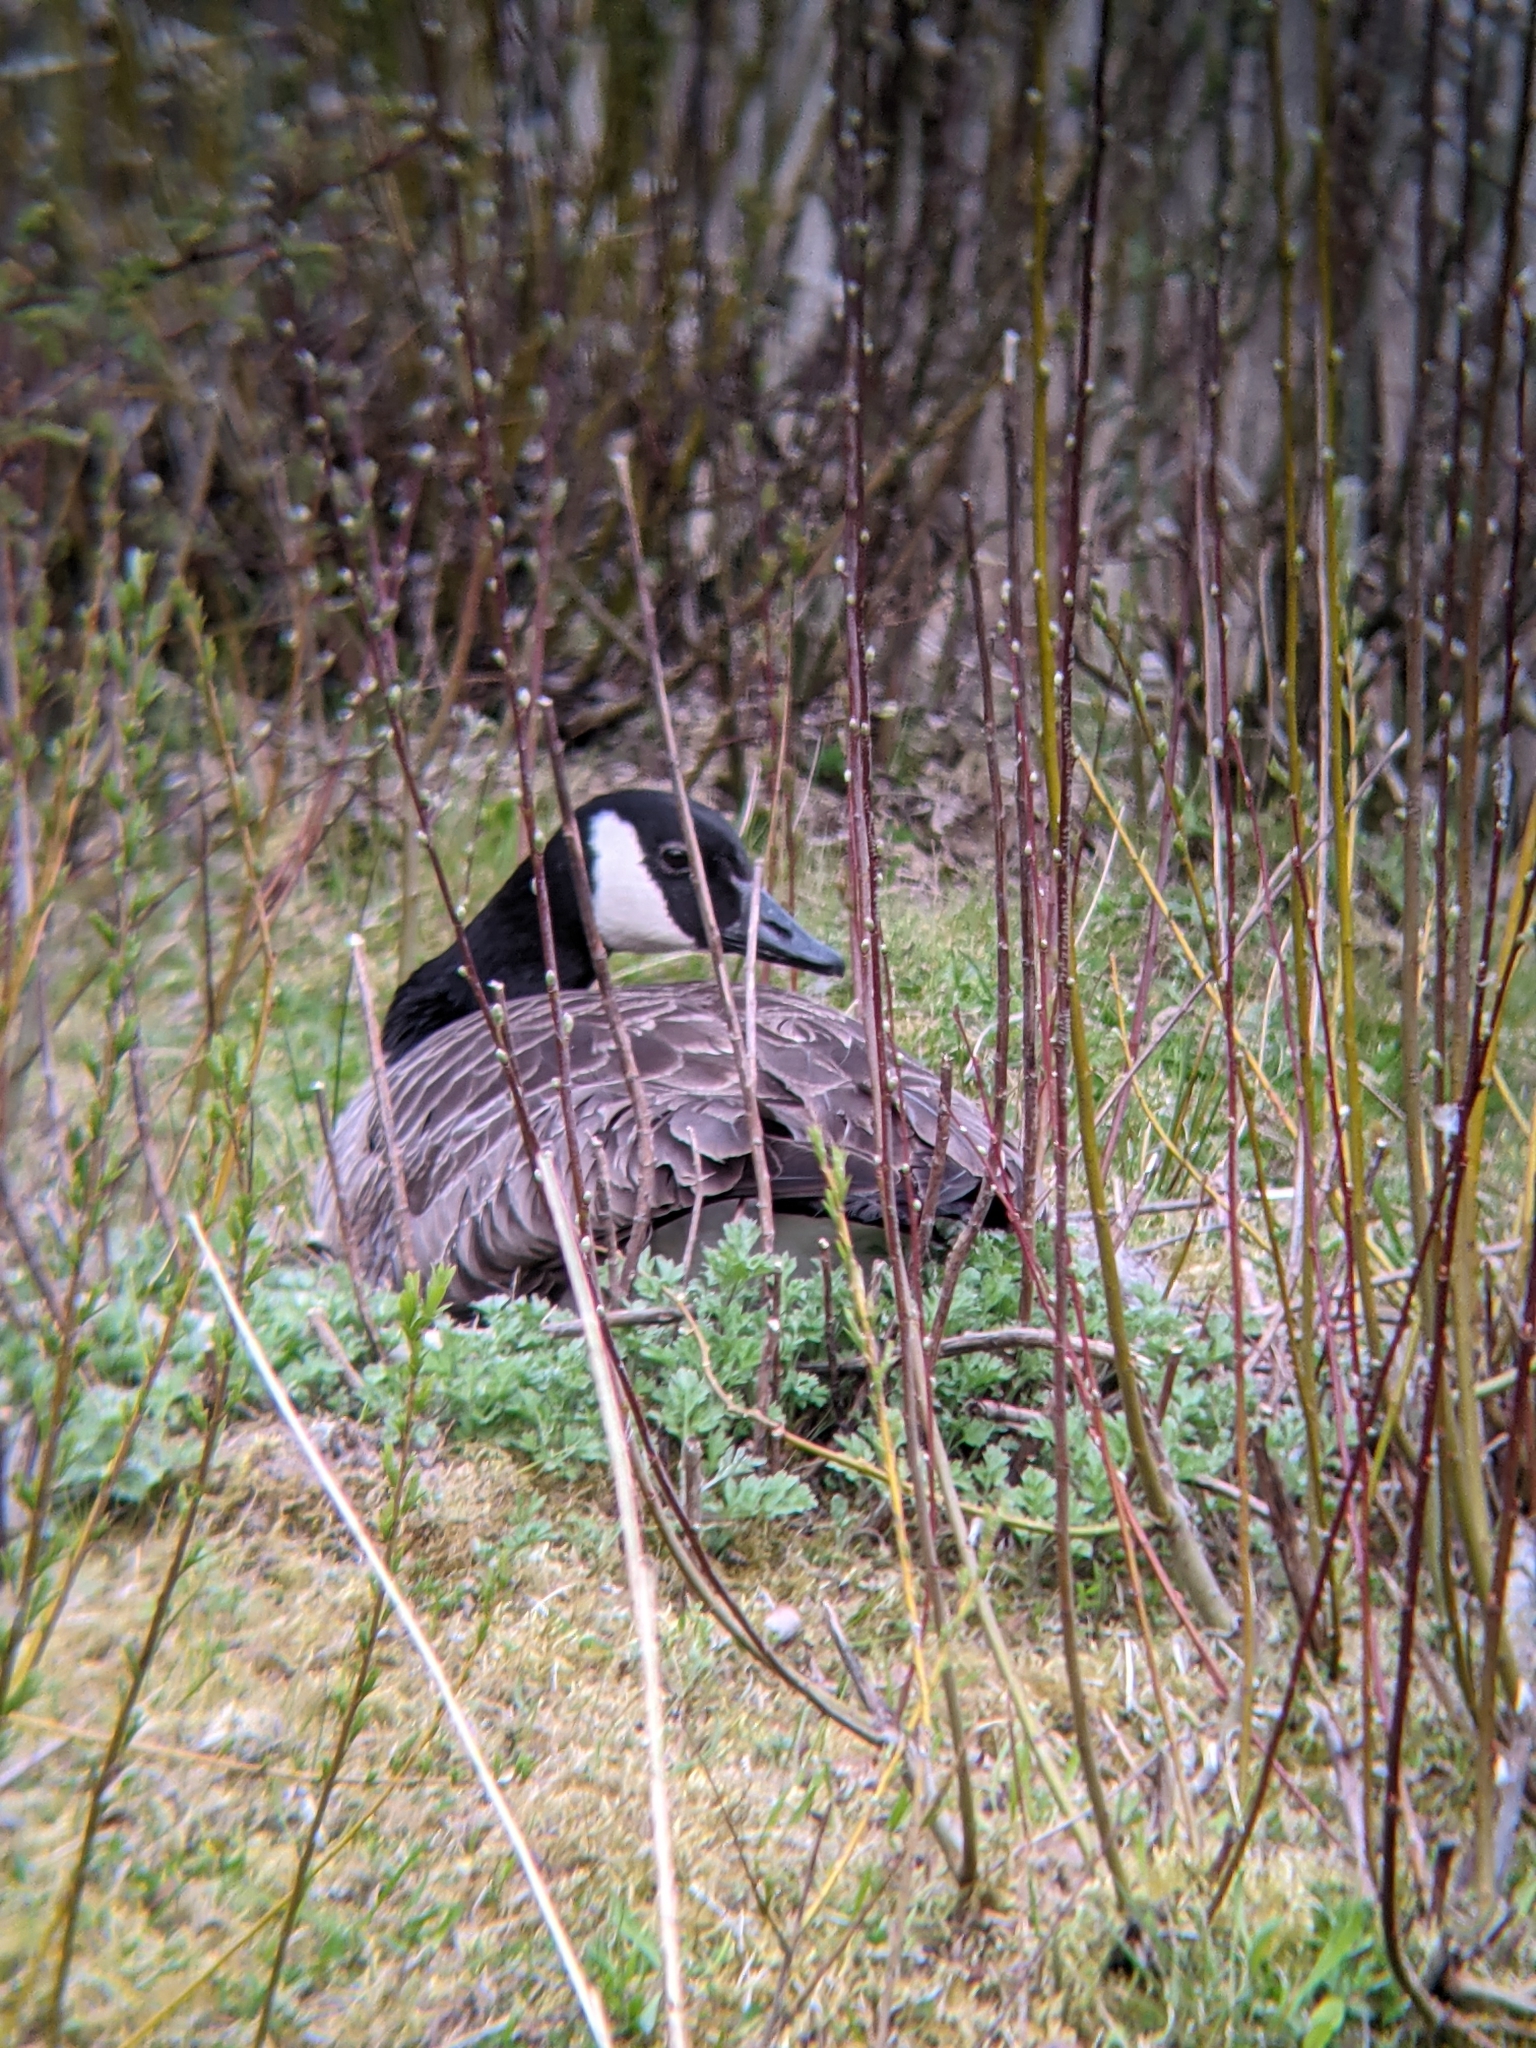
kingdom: Animalia
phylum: Chordata
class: Aves
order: Anseriformes
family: Anatidae
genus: Branta
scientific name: Branta canadensis
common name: Canada goose
